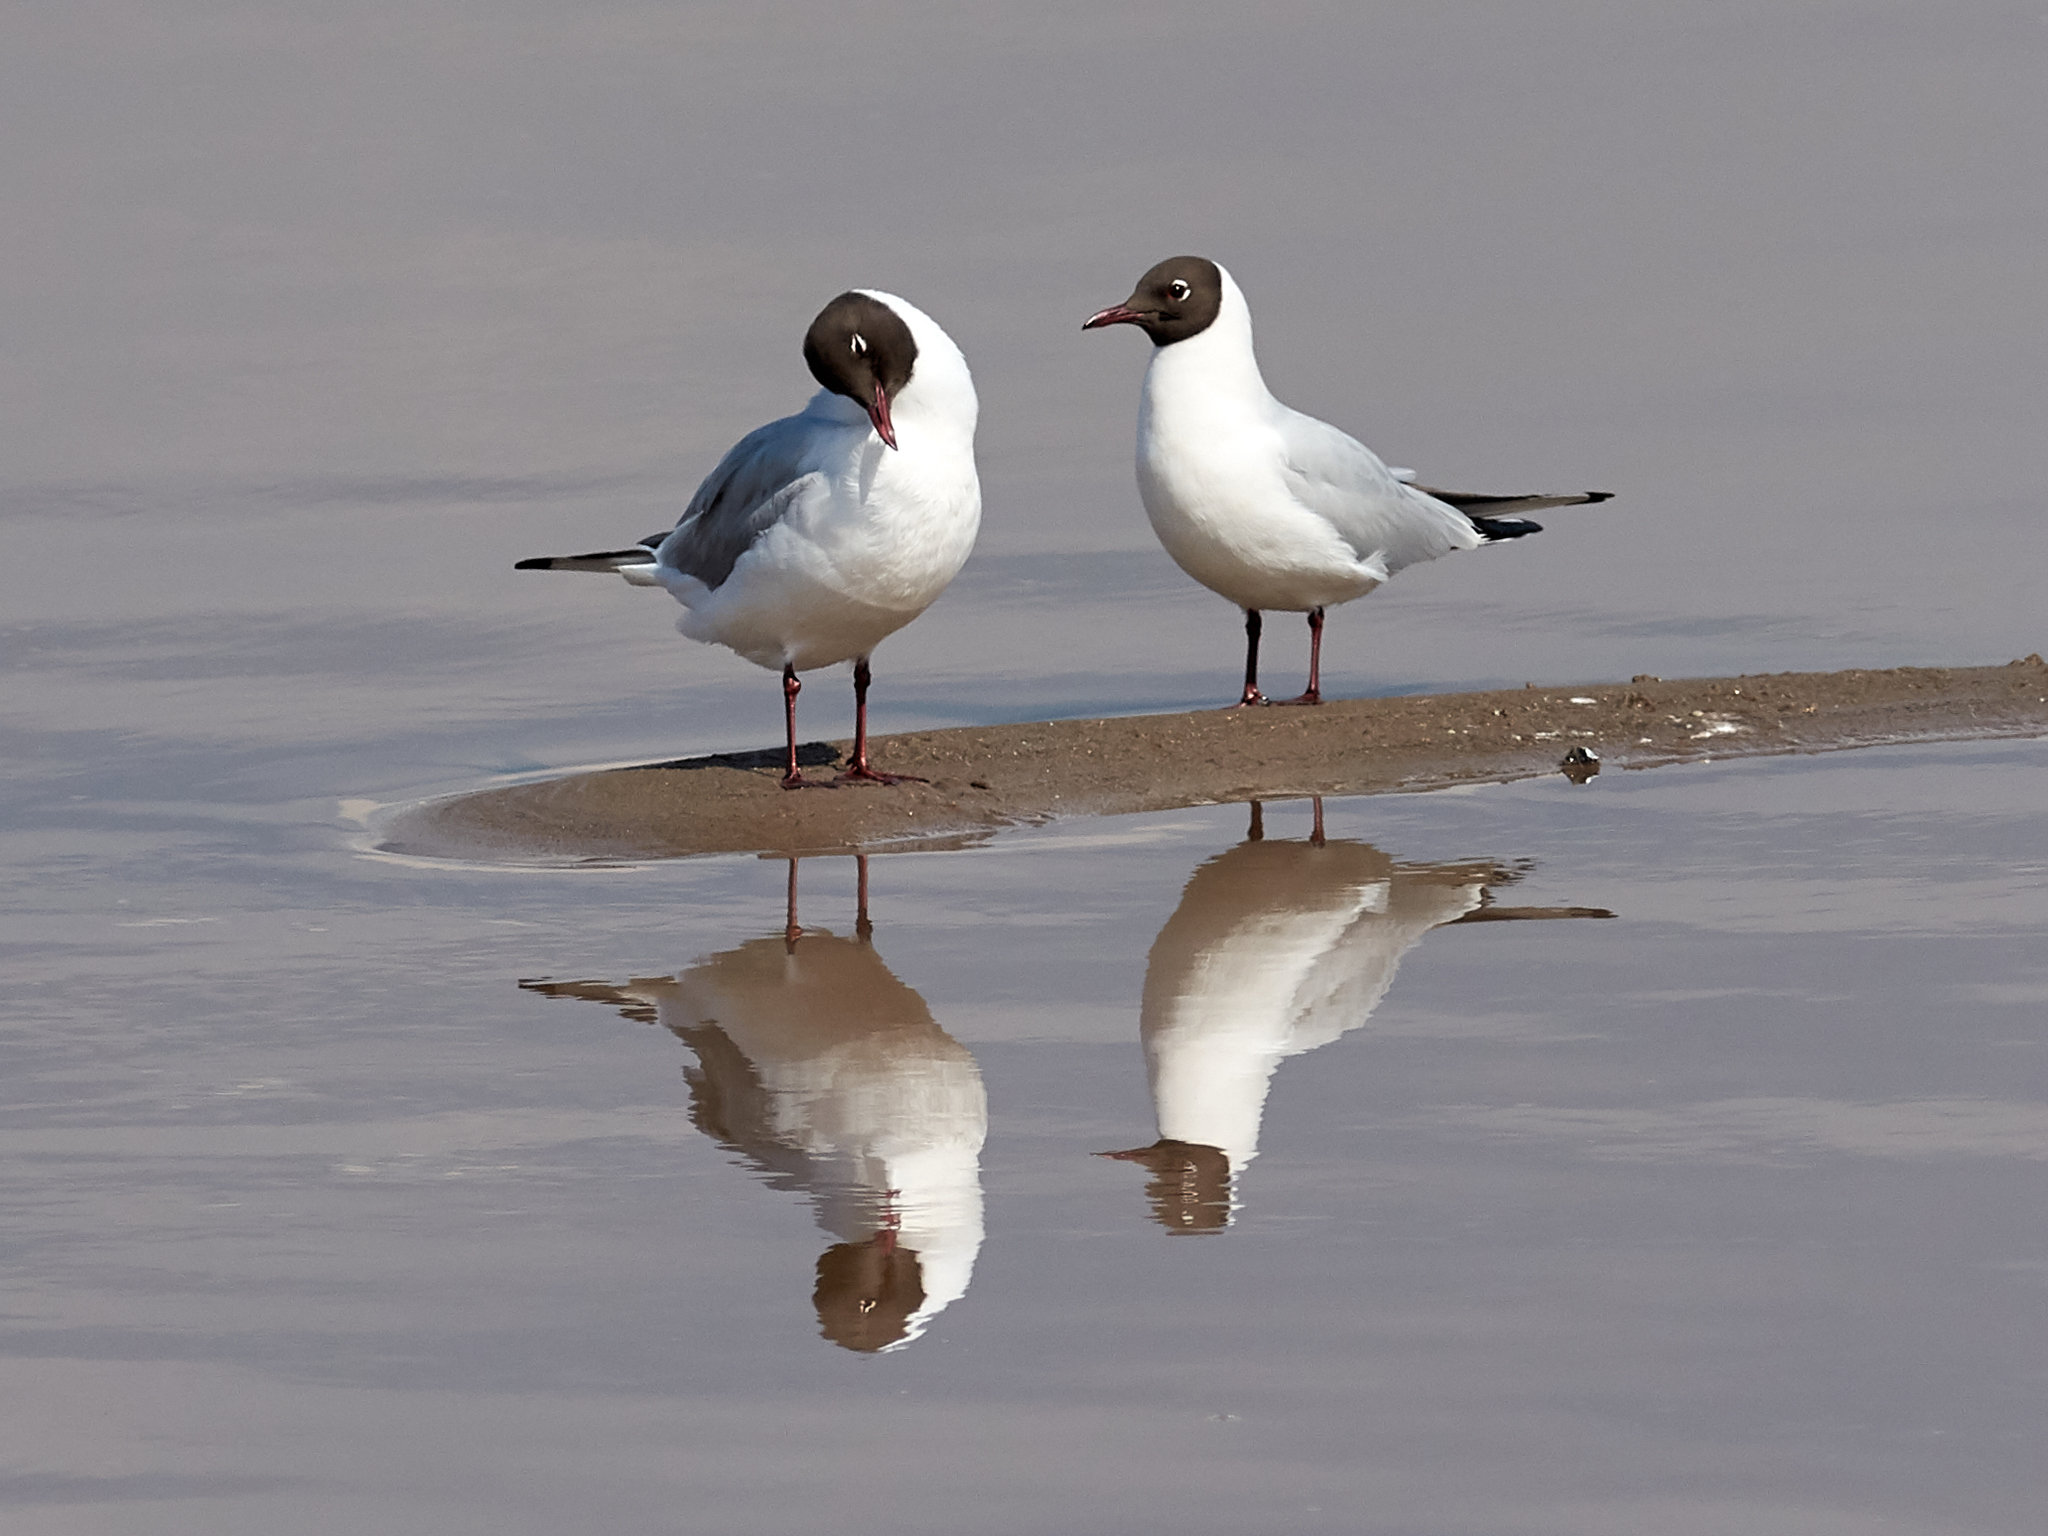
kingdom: Animalia
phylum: Chordata
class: Aves
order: Charadriiformes
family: Laridae
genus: Chroicocephalus
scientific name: Chroicocephalus ridibundus
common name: Black-headed gull
